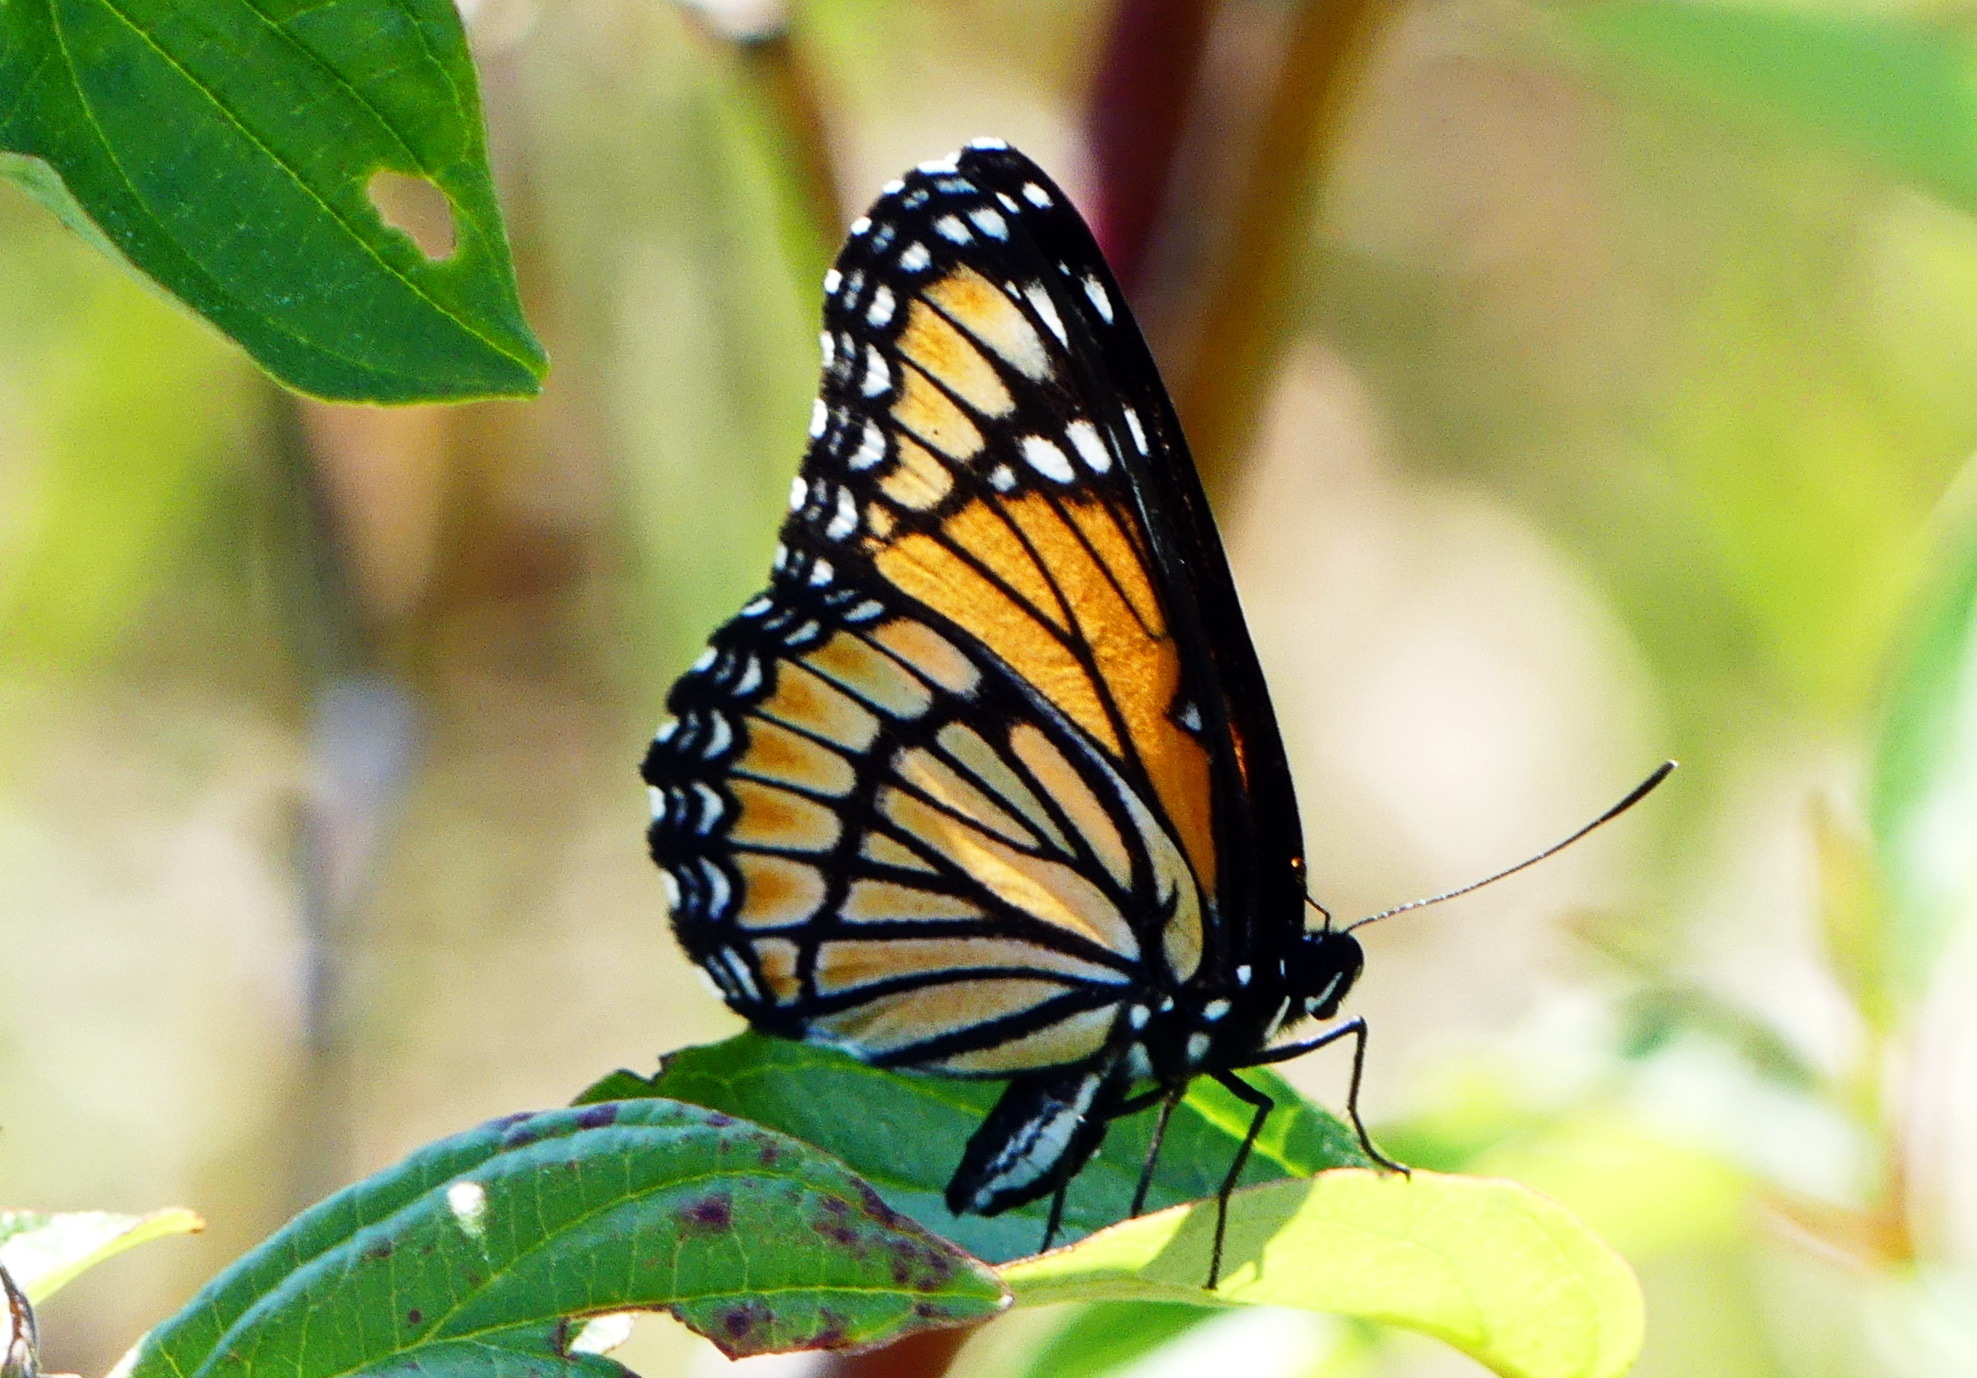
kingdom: Animalia
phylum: Arthropoda
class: Insecta
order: Lepidoptera
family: Nymphalidae
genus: Limenitis
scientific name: Limenitis archippus
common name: Viceroy
